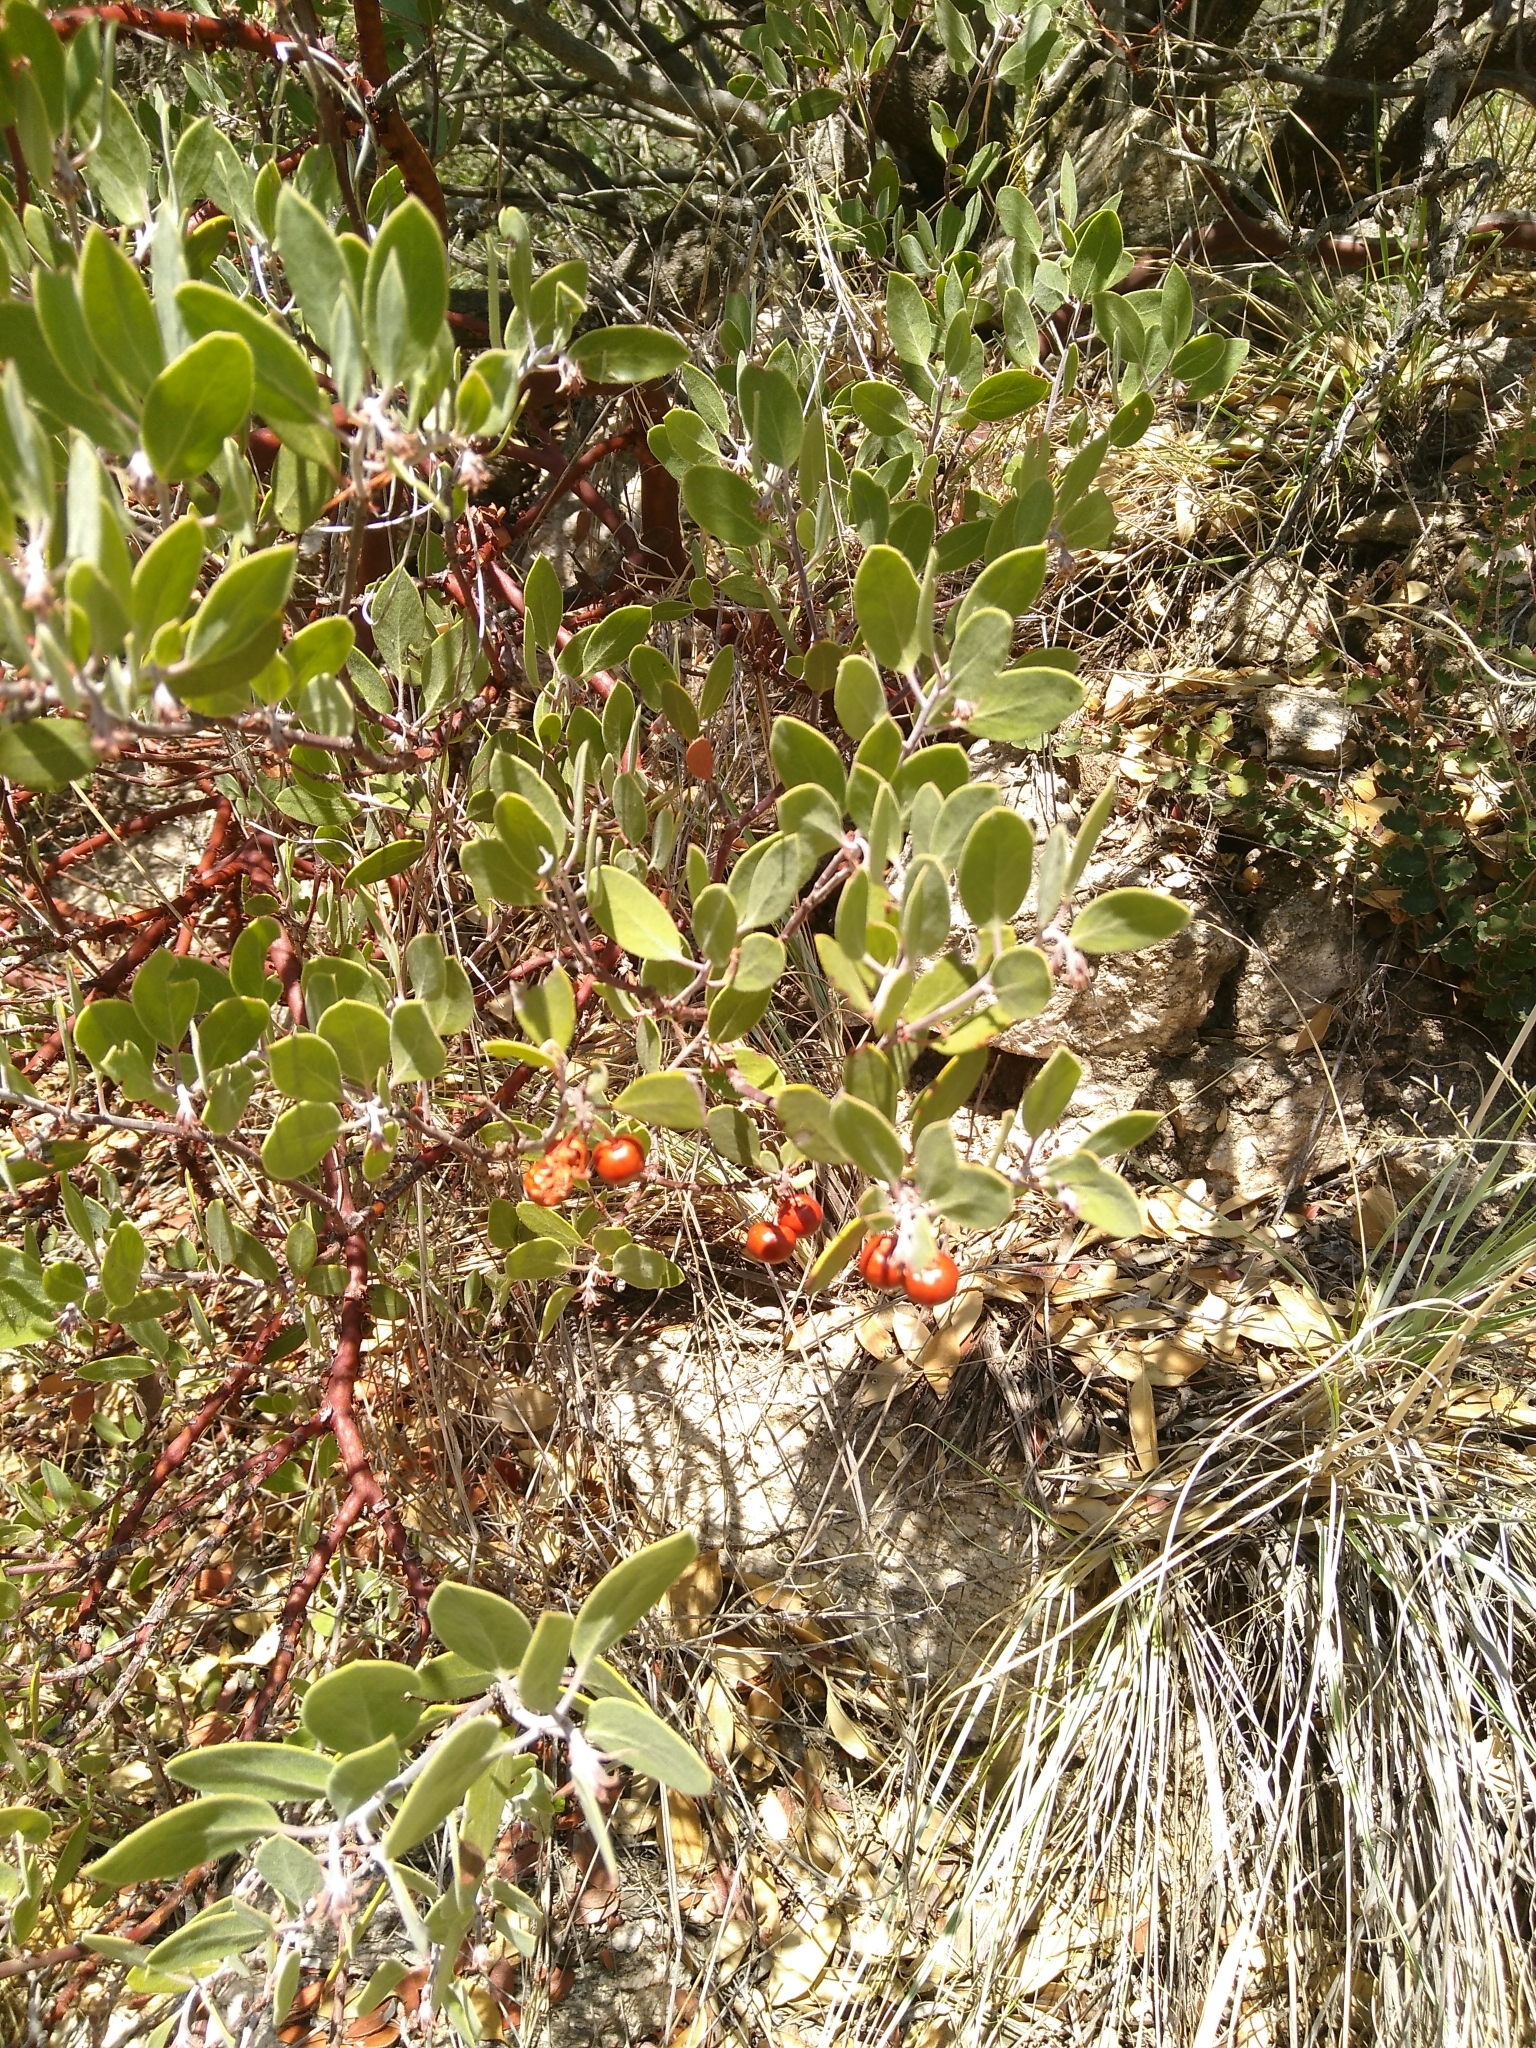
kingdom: Plantae
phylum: Tracheophyta
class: Magnoliopsida
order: Ericales
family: Ericaceae
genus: Arctostaphylos
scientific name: Arctostaphylos pungens
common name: Mexican manzanita
